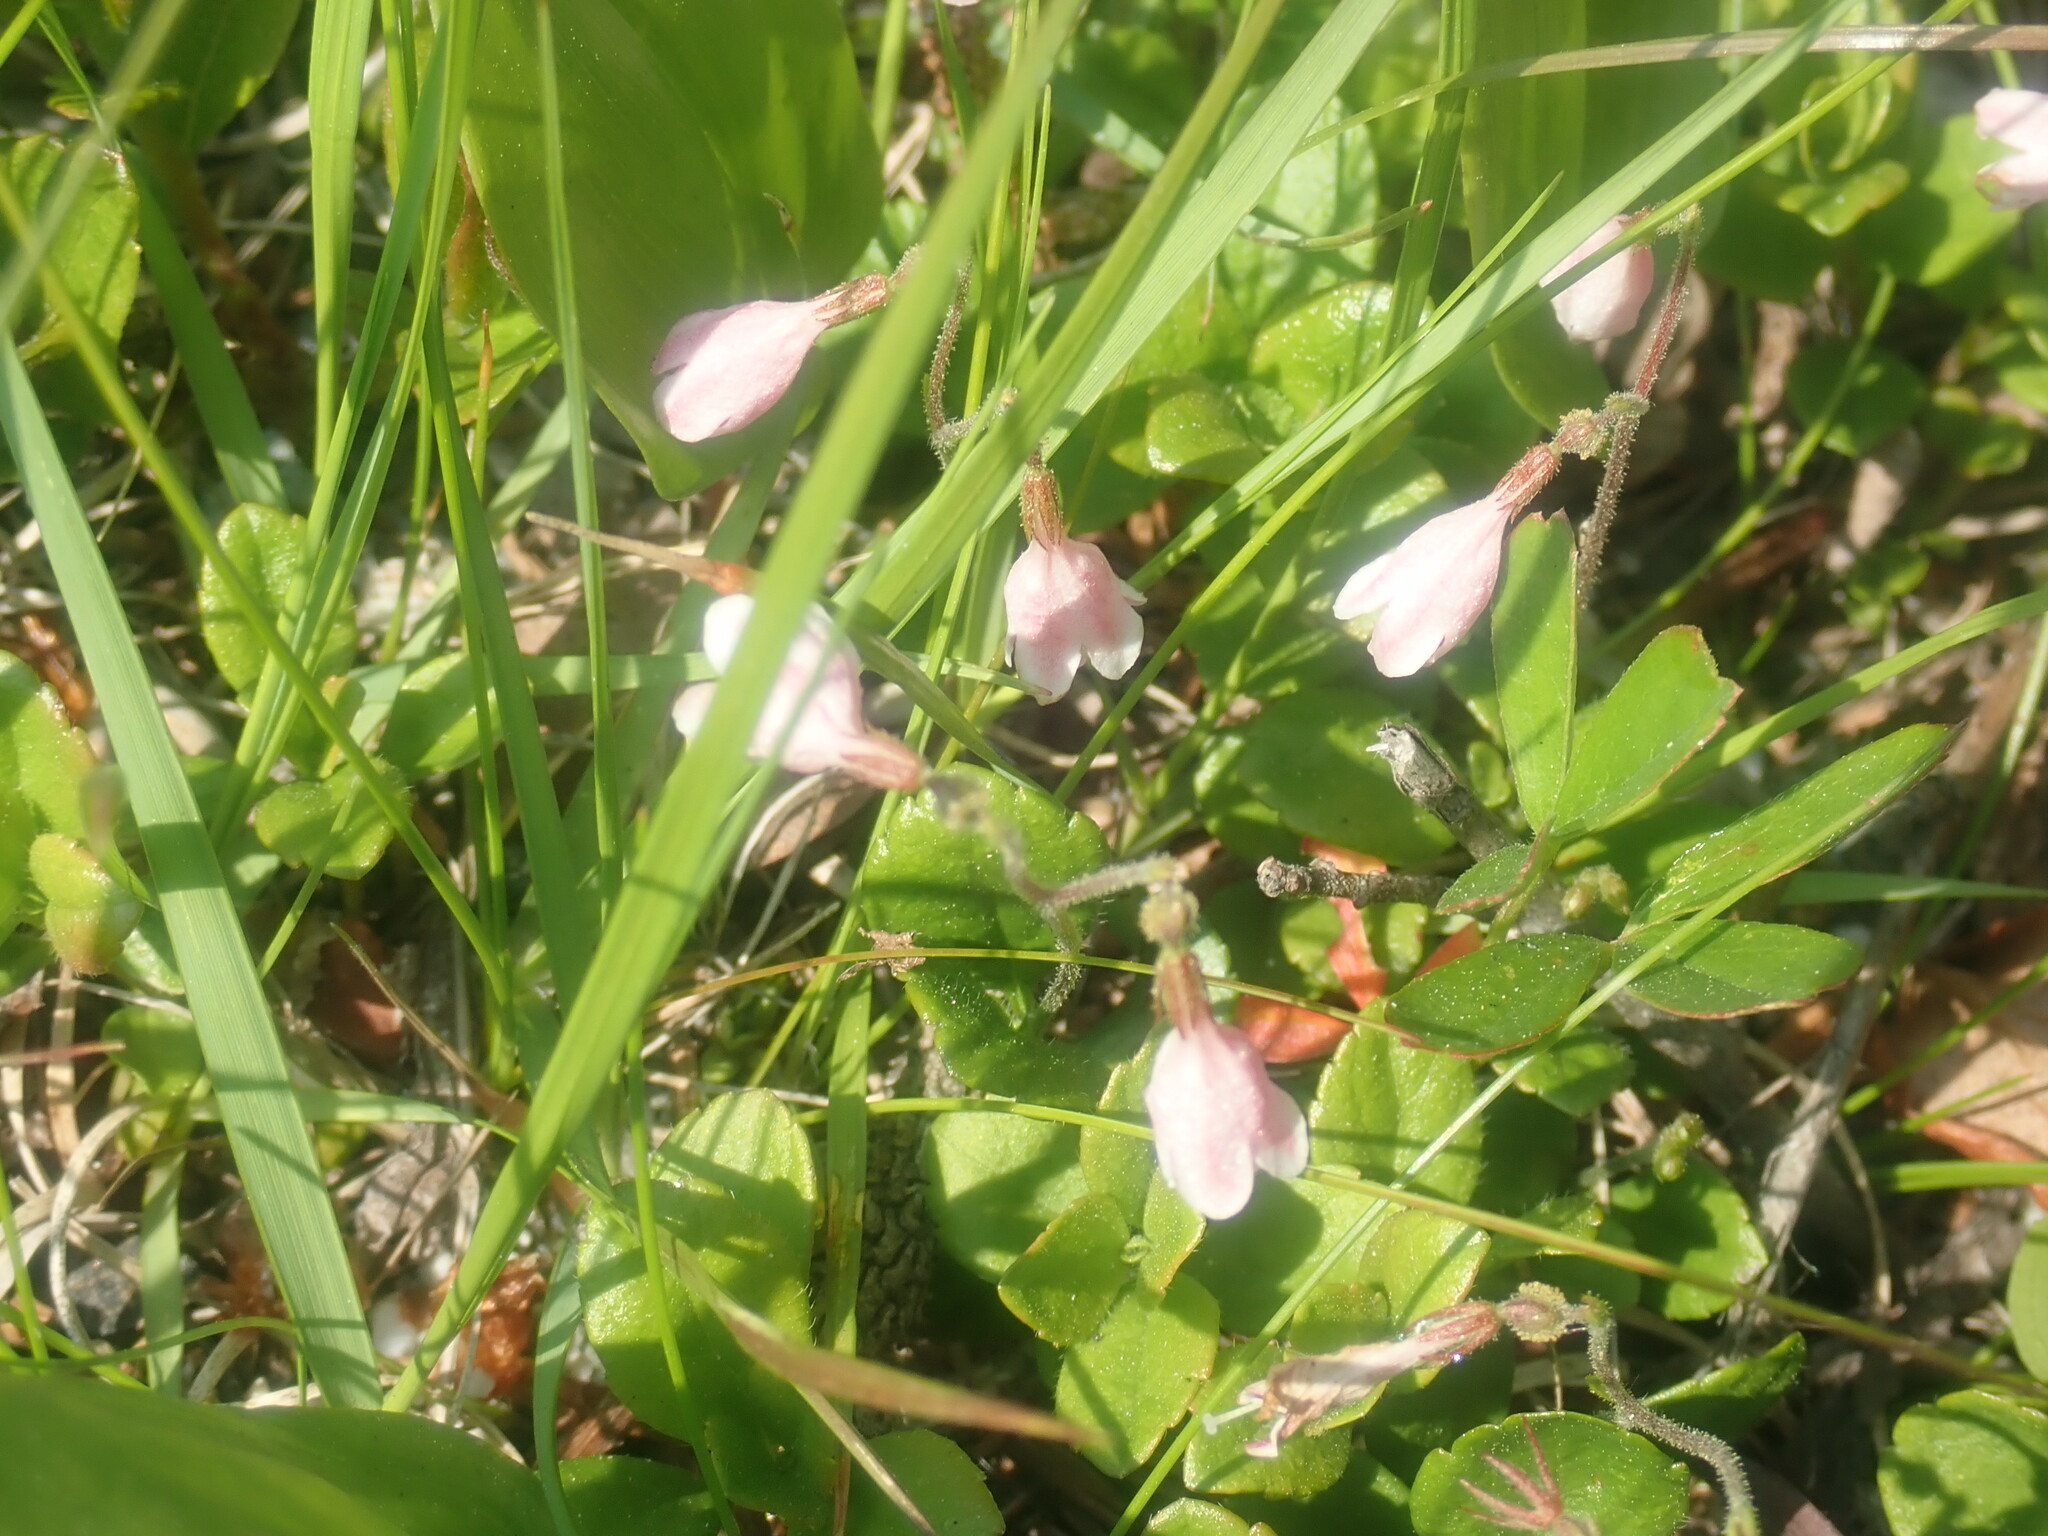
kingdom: Plantae
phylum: Tracheophyta
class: Magnoliopsida
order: Dipsacales
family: Caprifoliaceae
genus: Linnaea
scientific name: Linnaea borealis
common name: Twinflower
